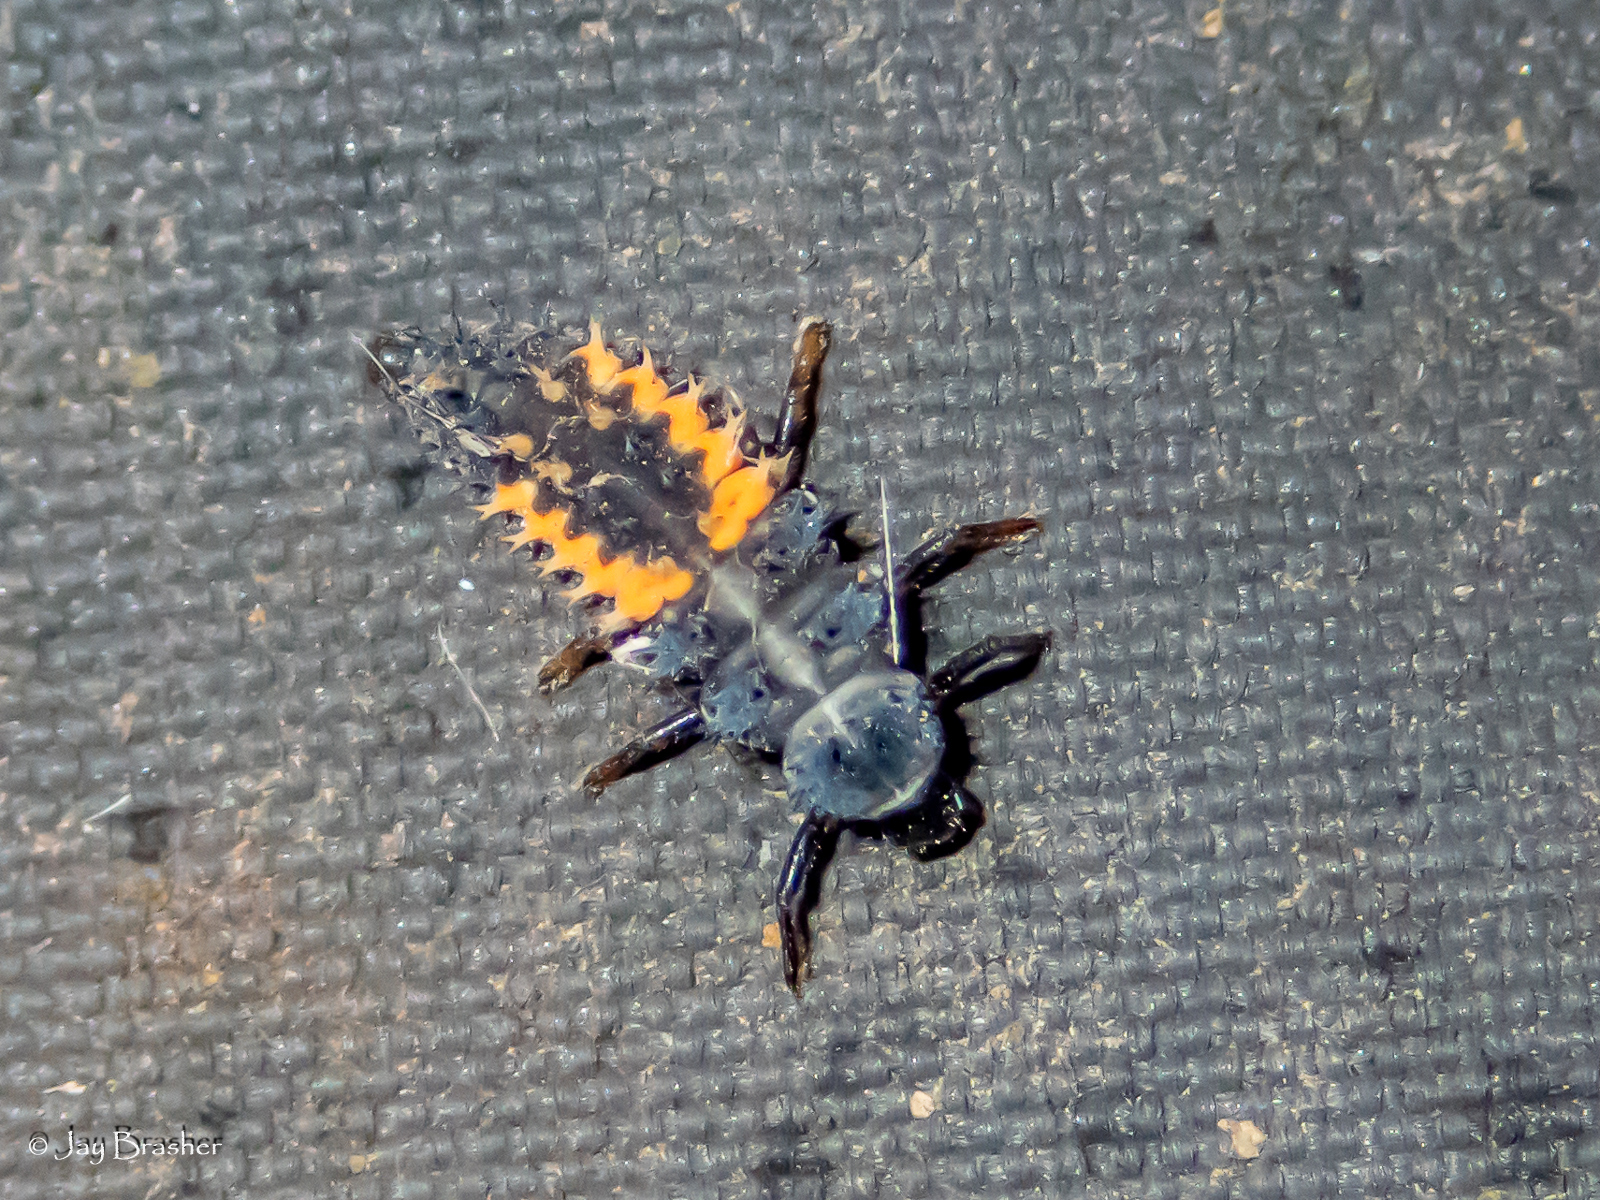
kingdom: Animalia
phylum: Arthropoda
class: Insecta
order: Coleoptera
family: Coccinellidae
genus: Harmonia
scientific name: Harmonia axyridis
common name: Harlequin ladybird
